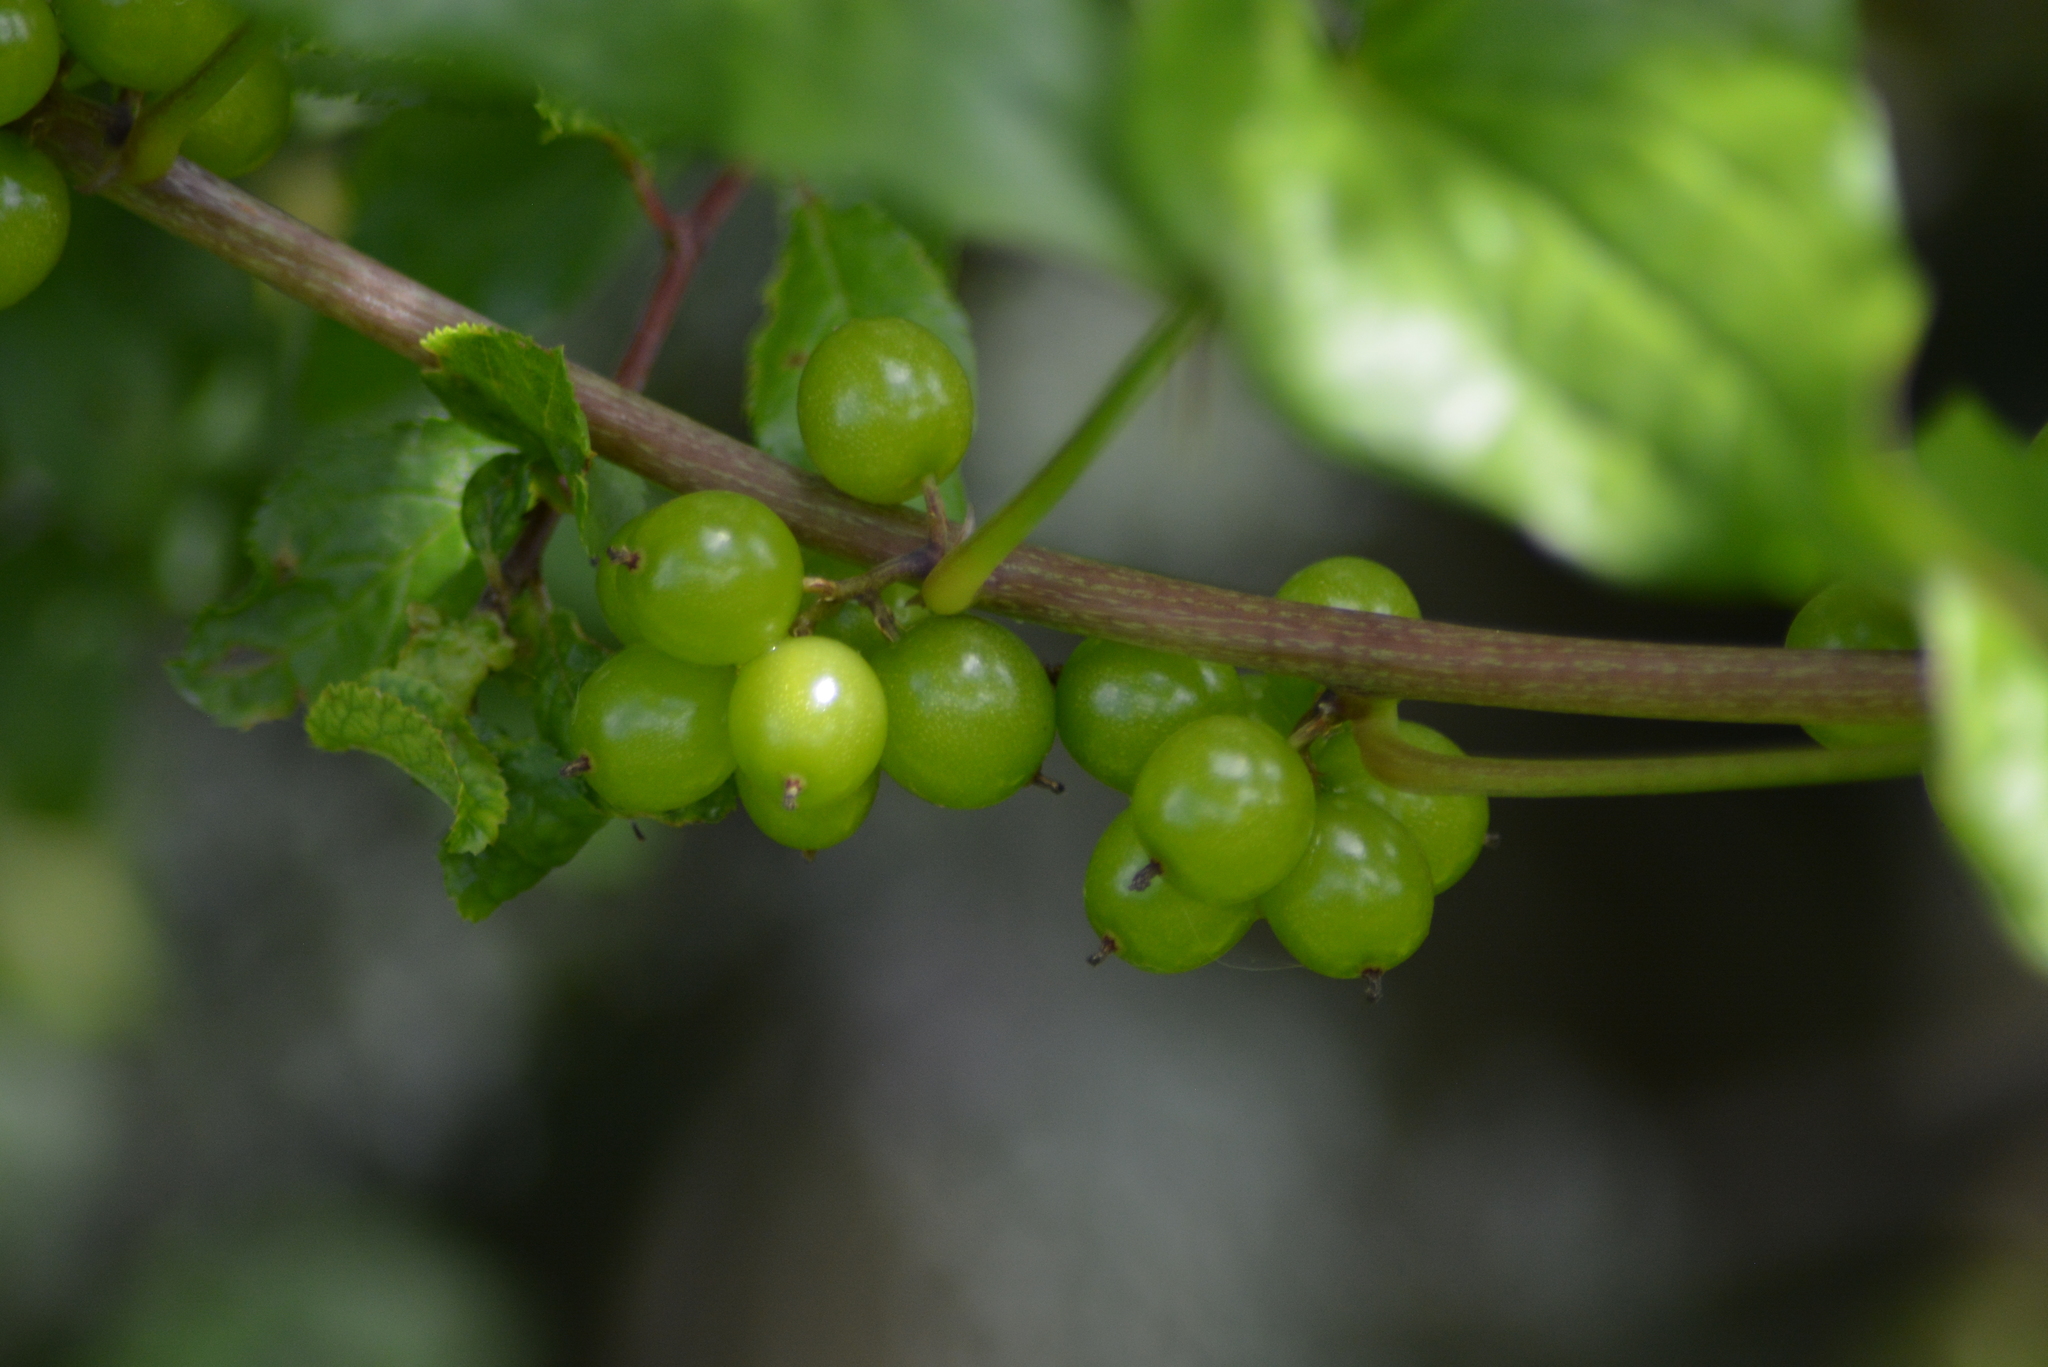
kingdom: Plantae
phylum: Tracheophyta
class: Liliopsida
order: Dioscoreales
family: Dioscoreaceae
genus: Dioscorea
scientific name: Dioscorea communis
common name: Black-bindweed
